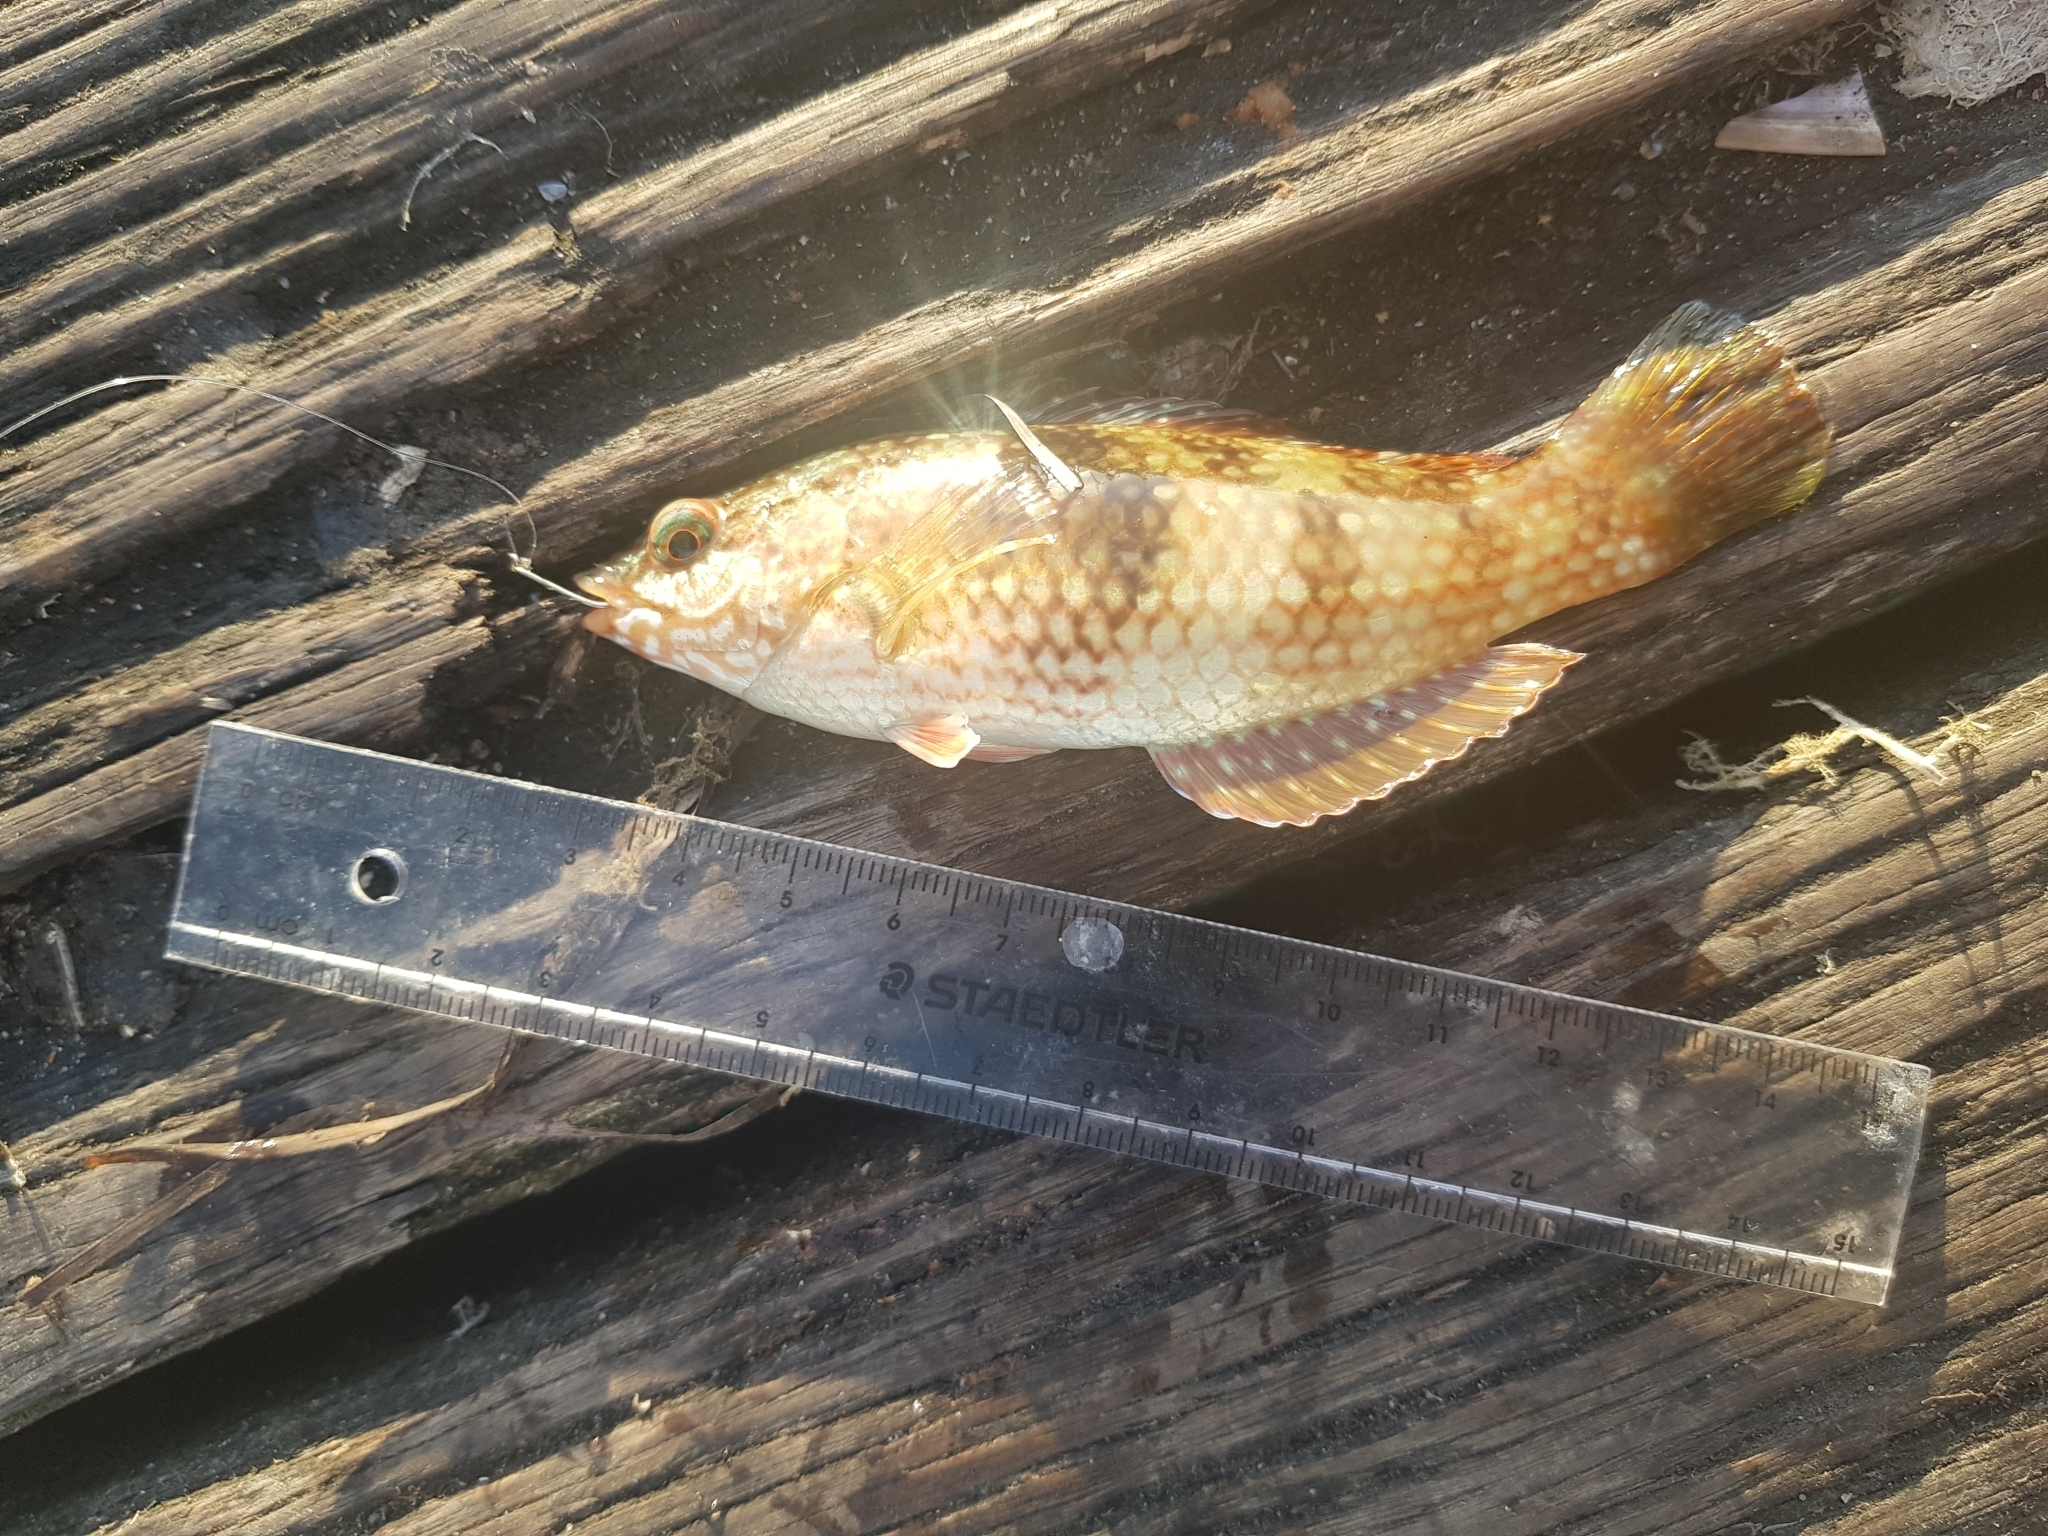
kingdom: Animalia
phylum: Chordata
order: Perciformes
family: Labridae
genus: Notolabrus
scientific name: Notolabrus tetricus
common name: Blue-throated parrotfish
